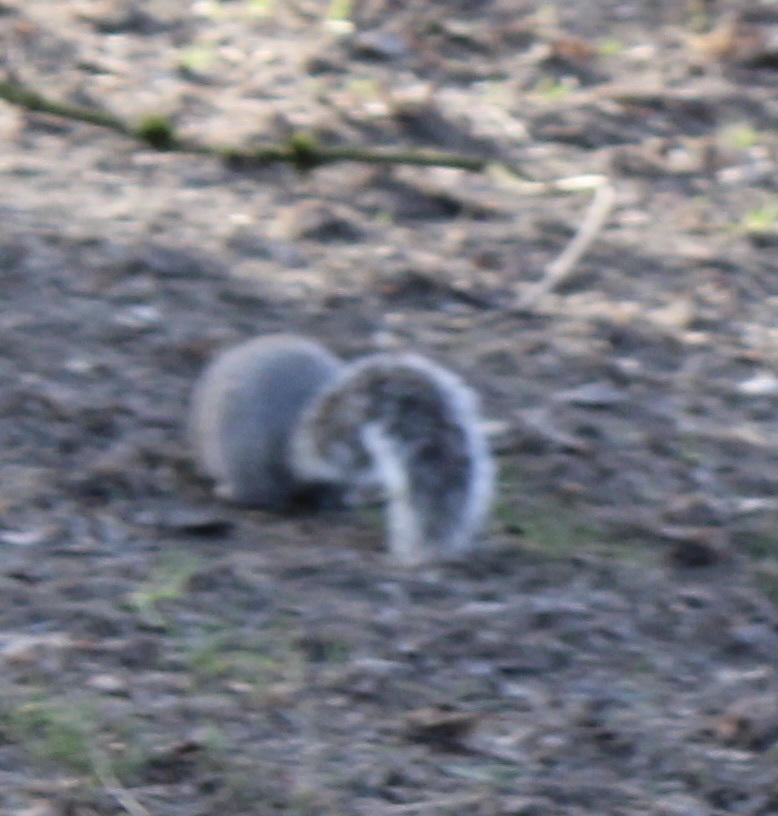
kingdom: Animalia
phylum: Chordata
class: Mammalia
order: Rodentia
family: Sciuridae
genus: Sciurus
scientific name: Sciurus carolinensis
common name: Eastern gray squirrel
